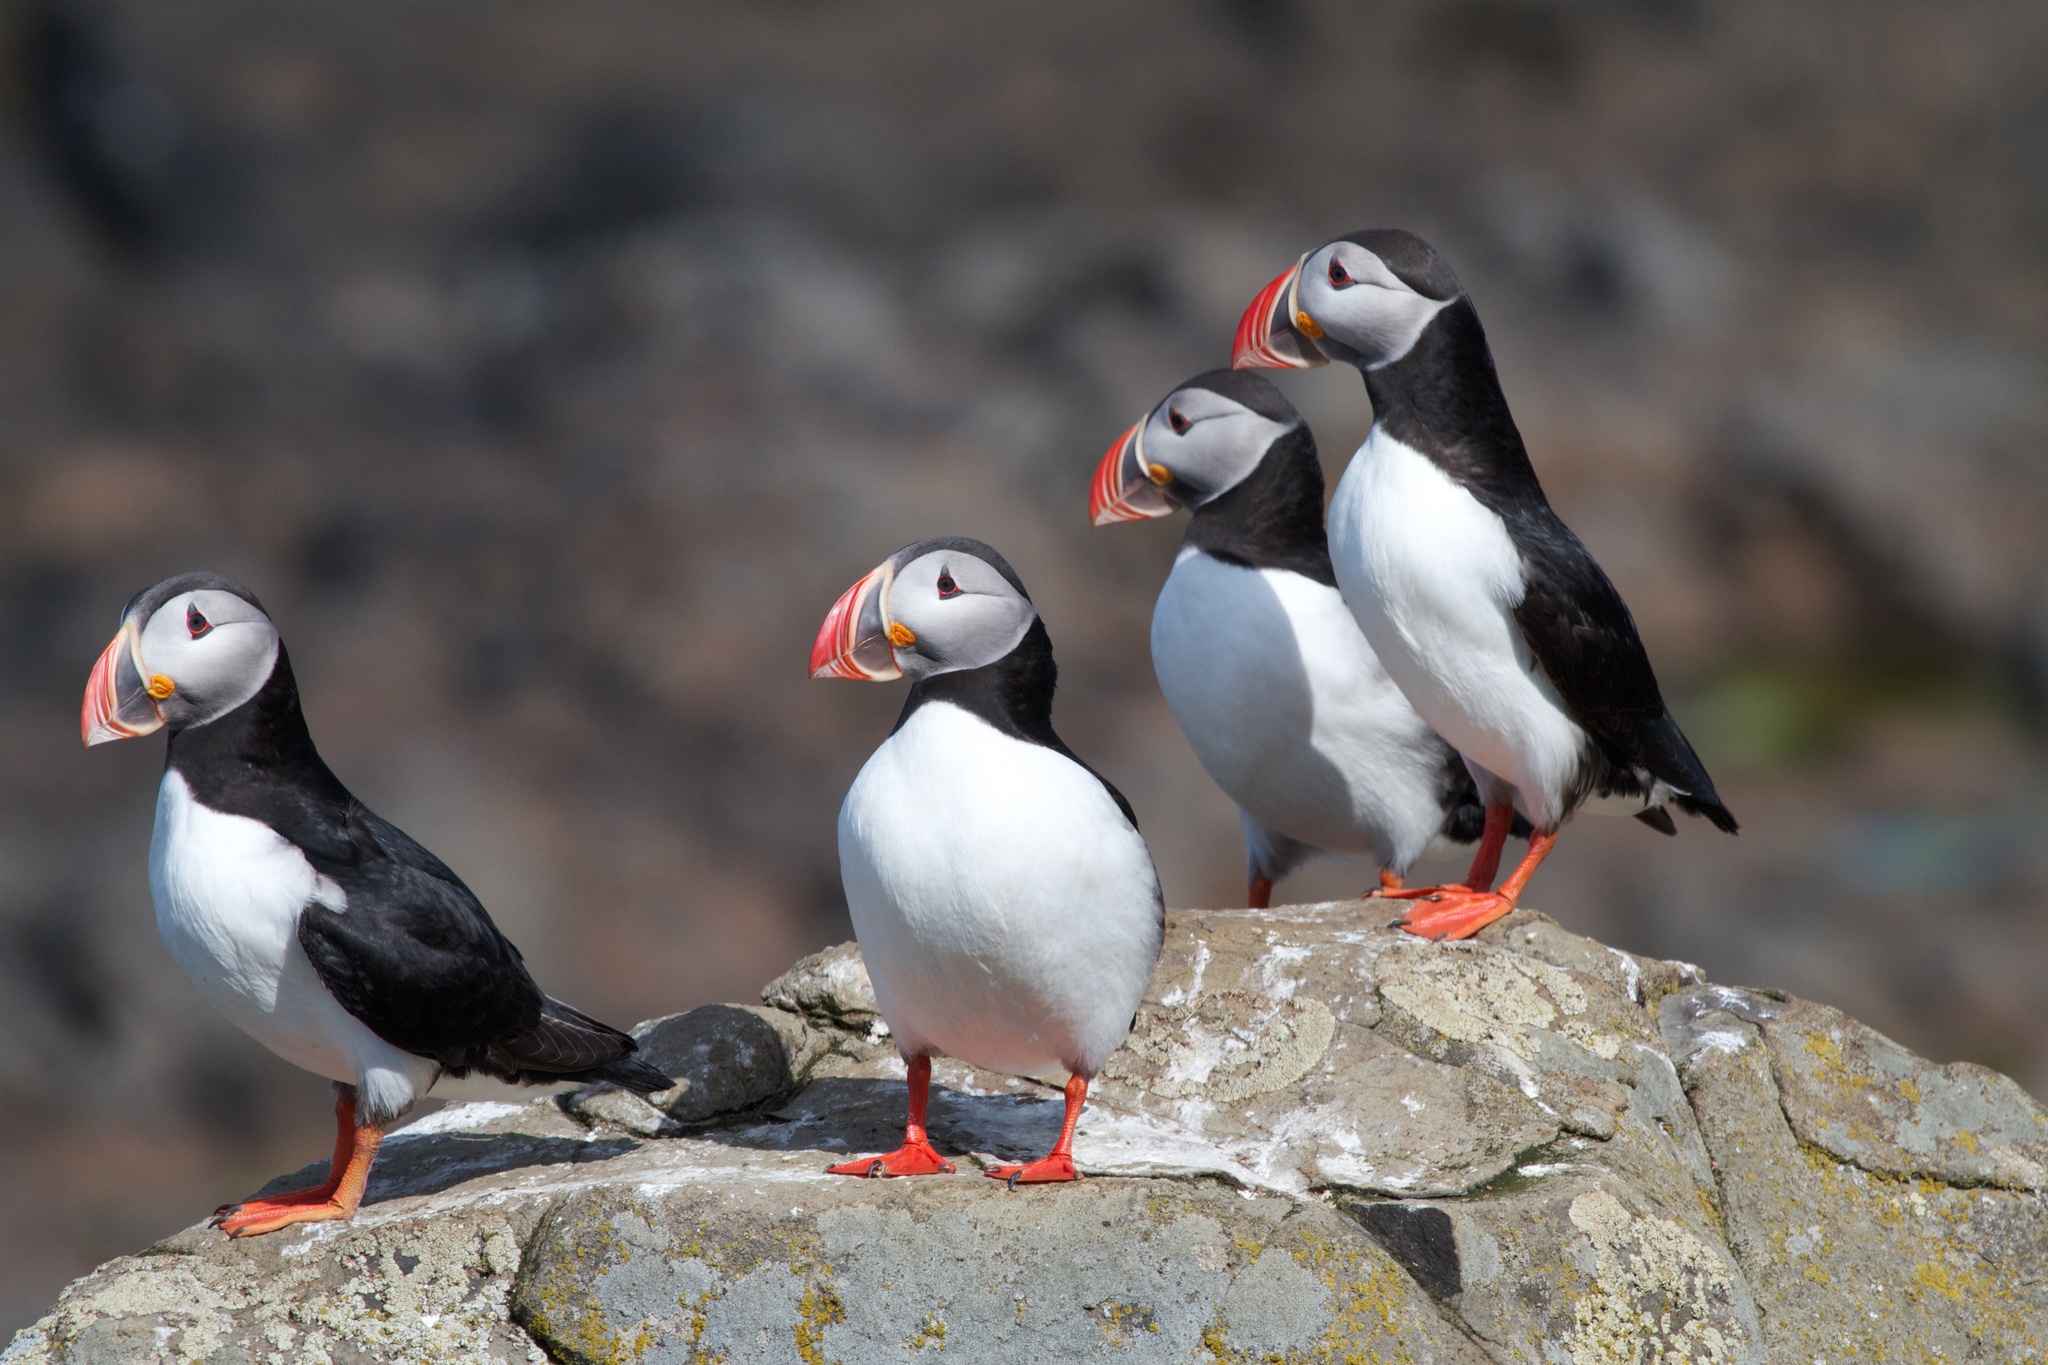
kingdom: Animalia
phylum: Chordata
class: Aves
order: Charadriiformes
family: Alcidae
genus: Fratercula
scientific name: Fratercula arctica
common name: Atlantic puffin
